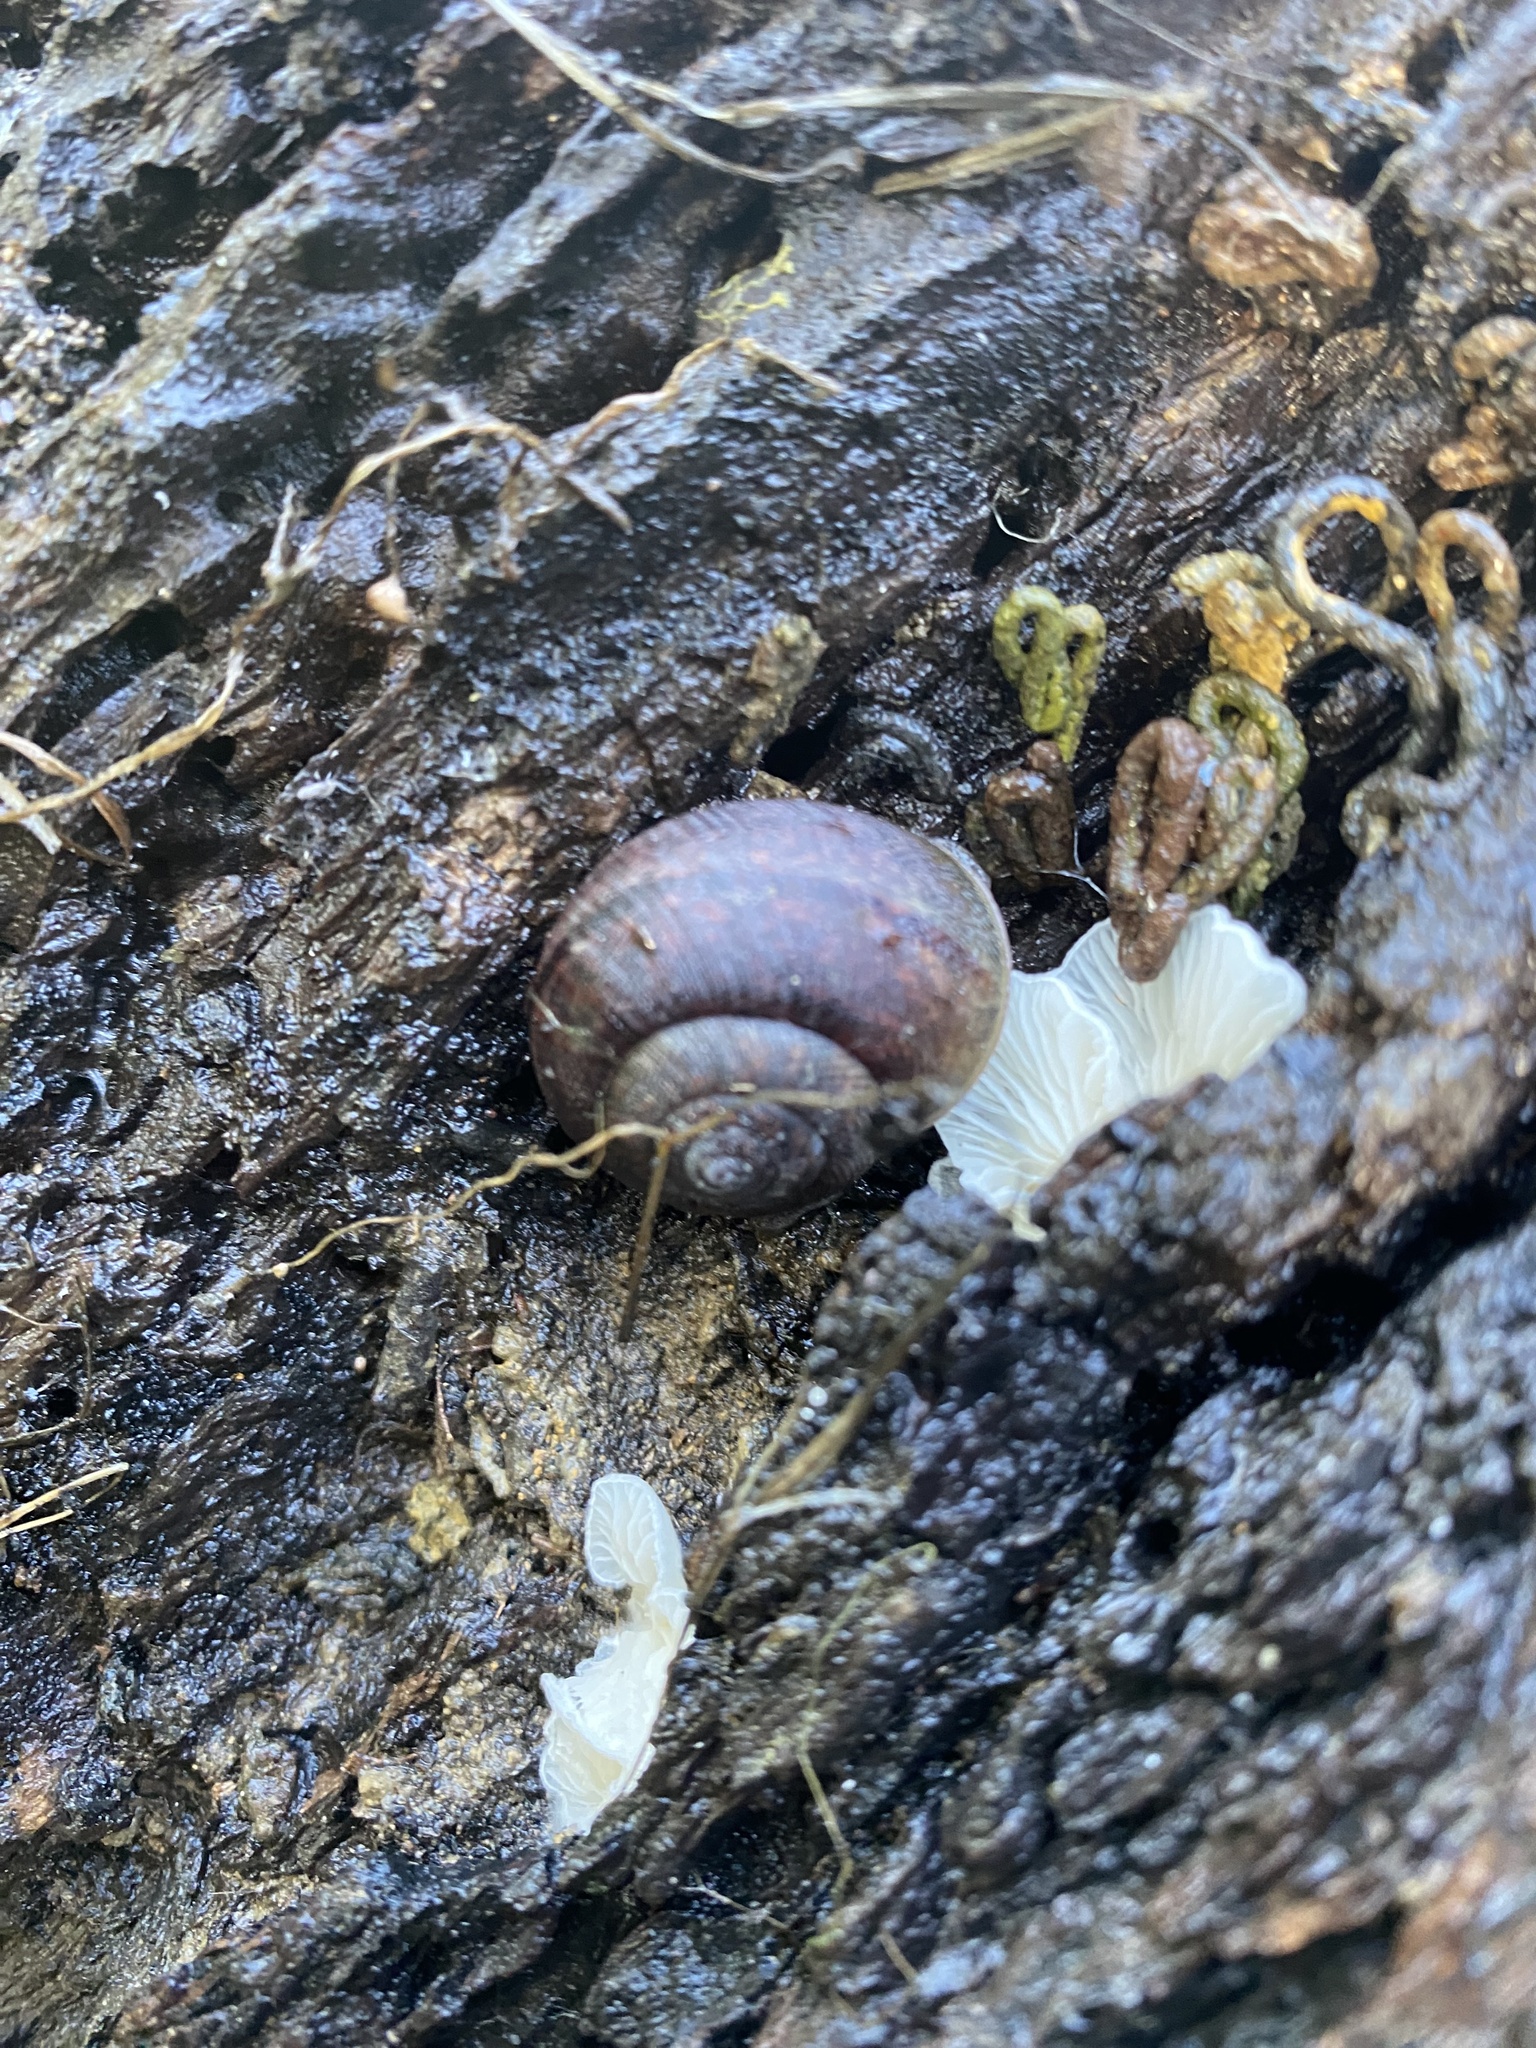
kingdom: Animalia
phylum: Mollusca
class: Gastropoda
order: Stylommatophora
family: Xanthonychidae
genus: Helminthoglypta
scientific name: Helminthoglypta nickliniana
